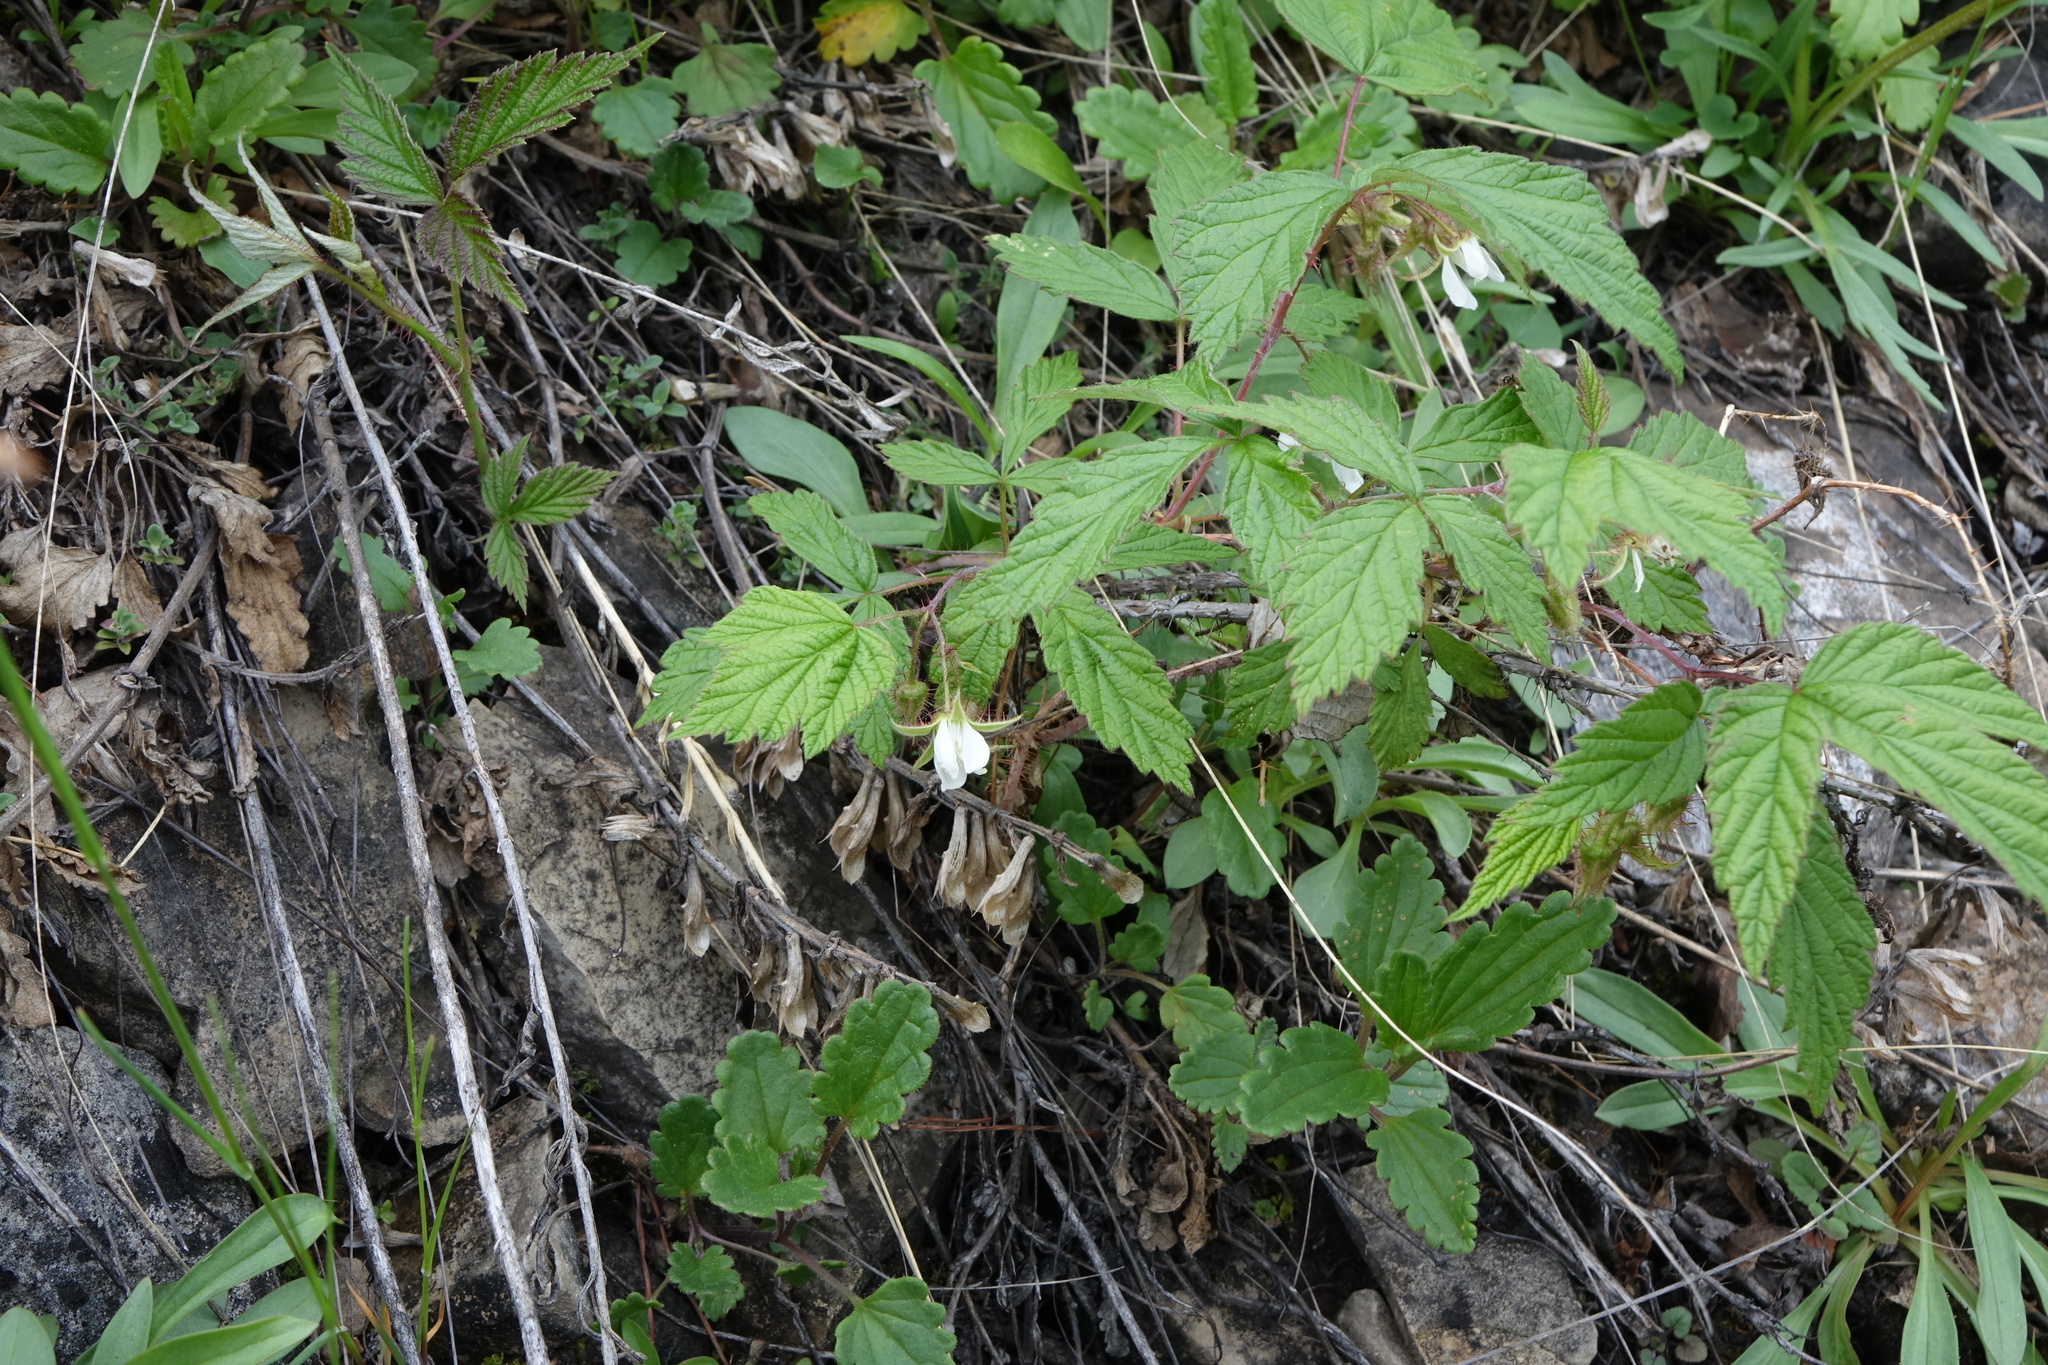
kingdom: Plantae
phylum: Tracheophyta
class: Magnoliopsida
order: Rosales
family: Rosaceae
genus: Rubus
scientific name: Rubus sachalinensis
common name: Red raspberry
